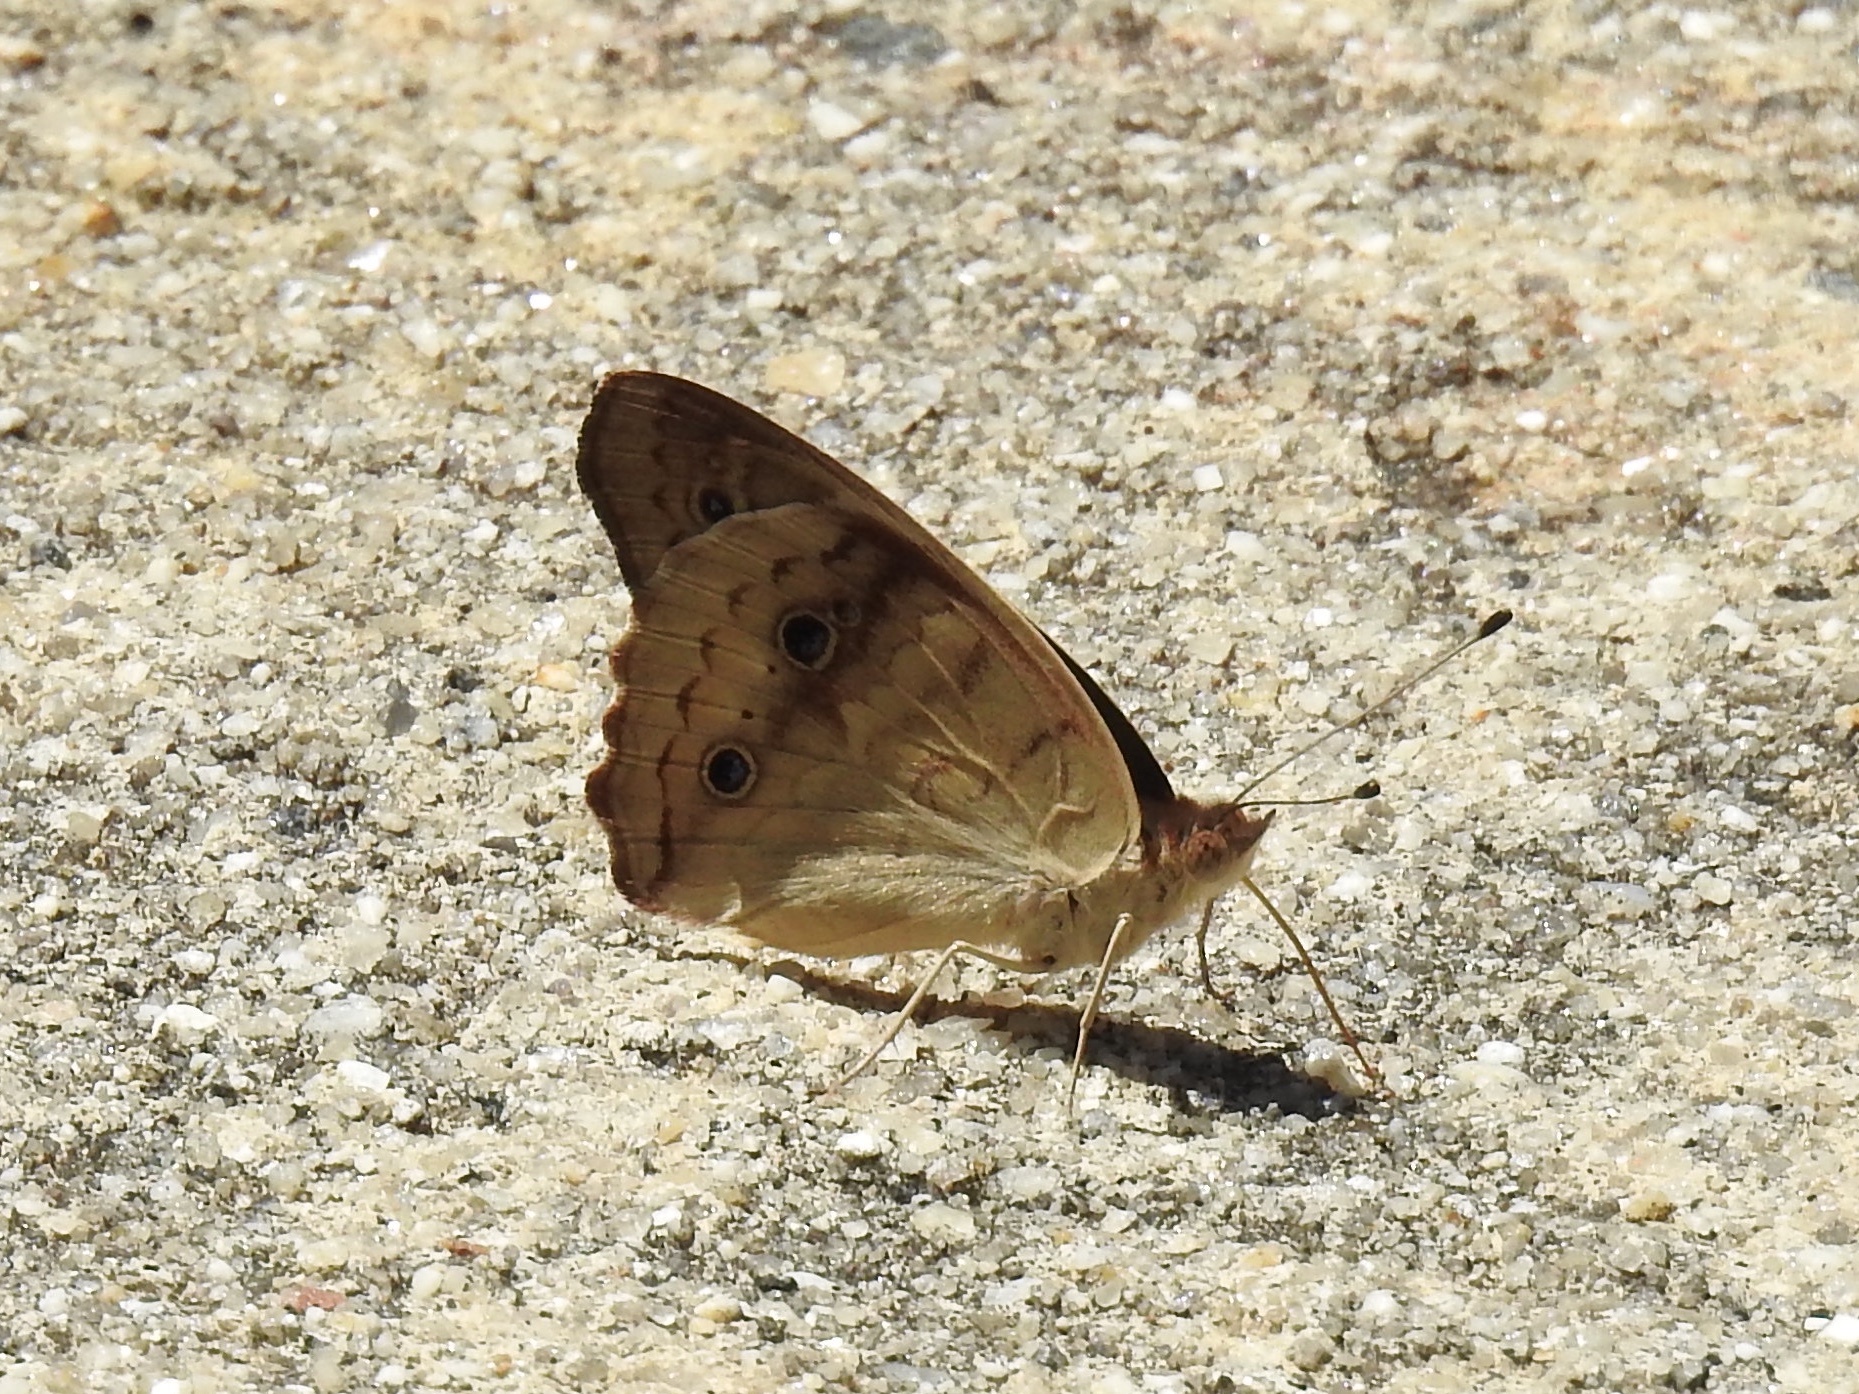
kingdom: Animalia
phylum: Arthropoda
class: Insecta
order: Lepidoptera
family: Nymphalidae
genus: Junonia
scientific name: Junonia coenia
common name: Common buckeye
